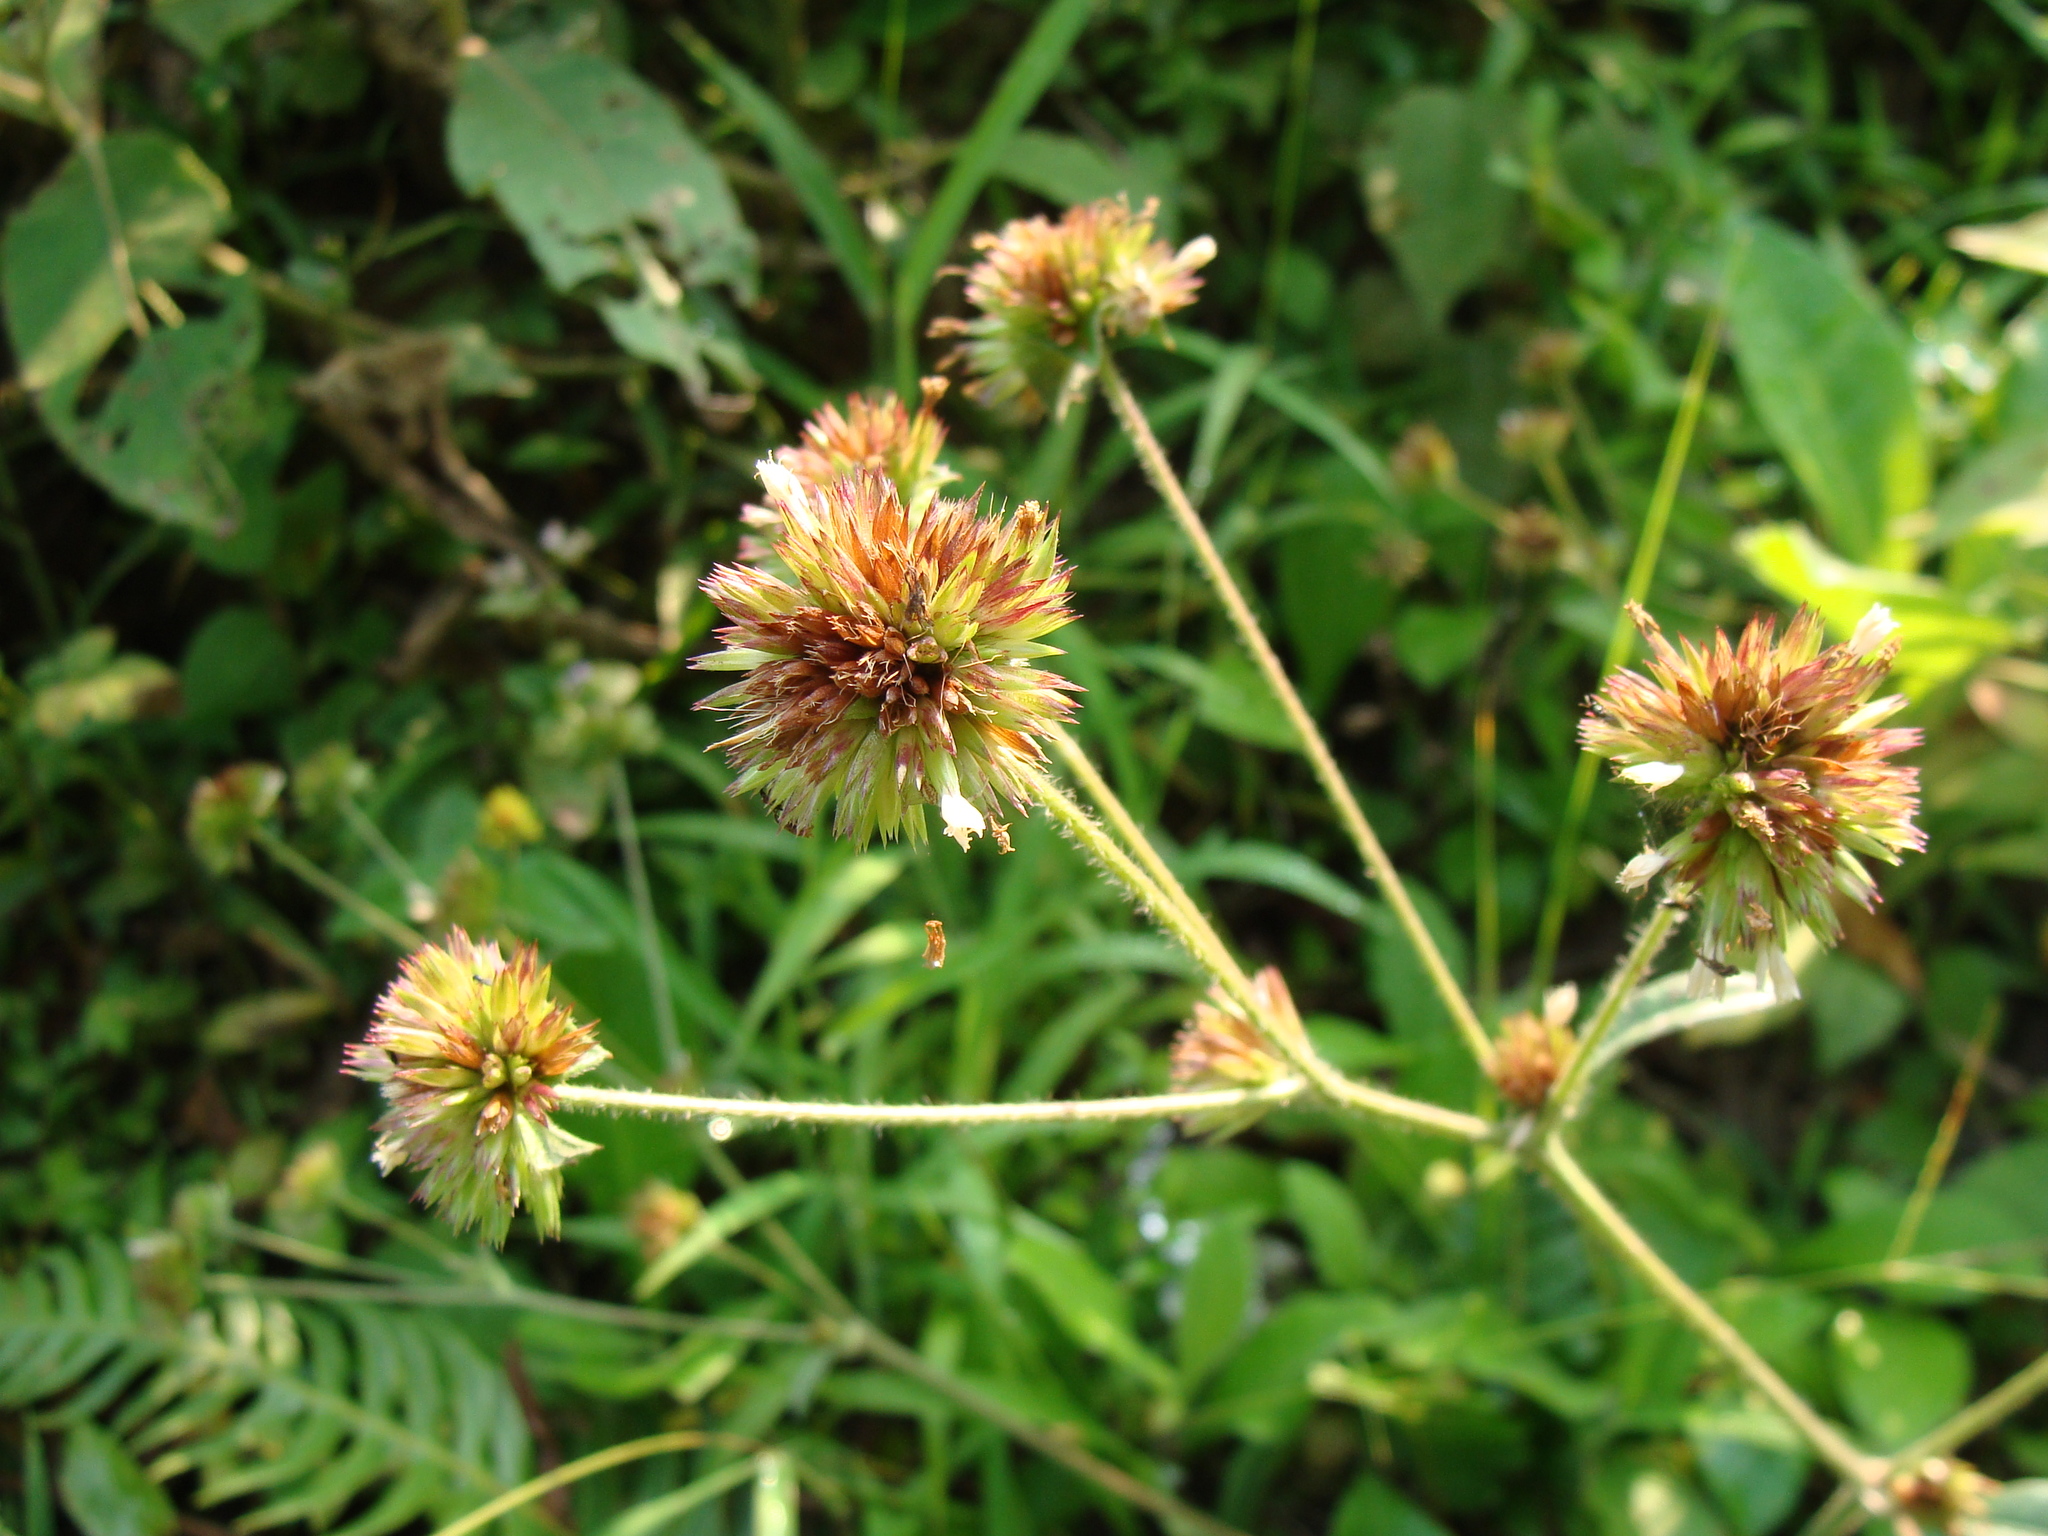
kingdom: Plantae
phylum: Tracheophyta
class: Magnoliopsida
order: Asterales
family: Asteraceae
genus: Elephantopus
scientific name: Elephantopus mollis
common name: Soft elephantsfoot
